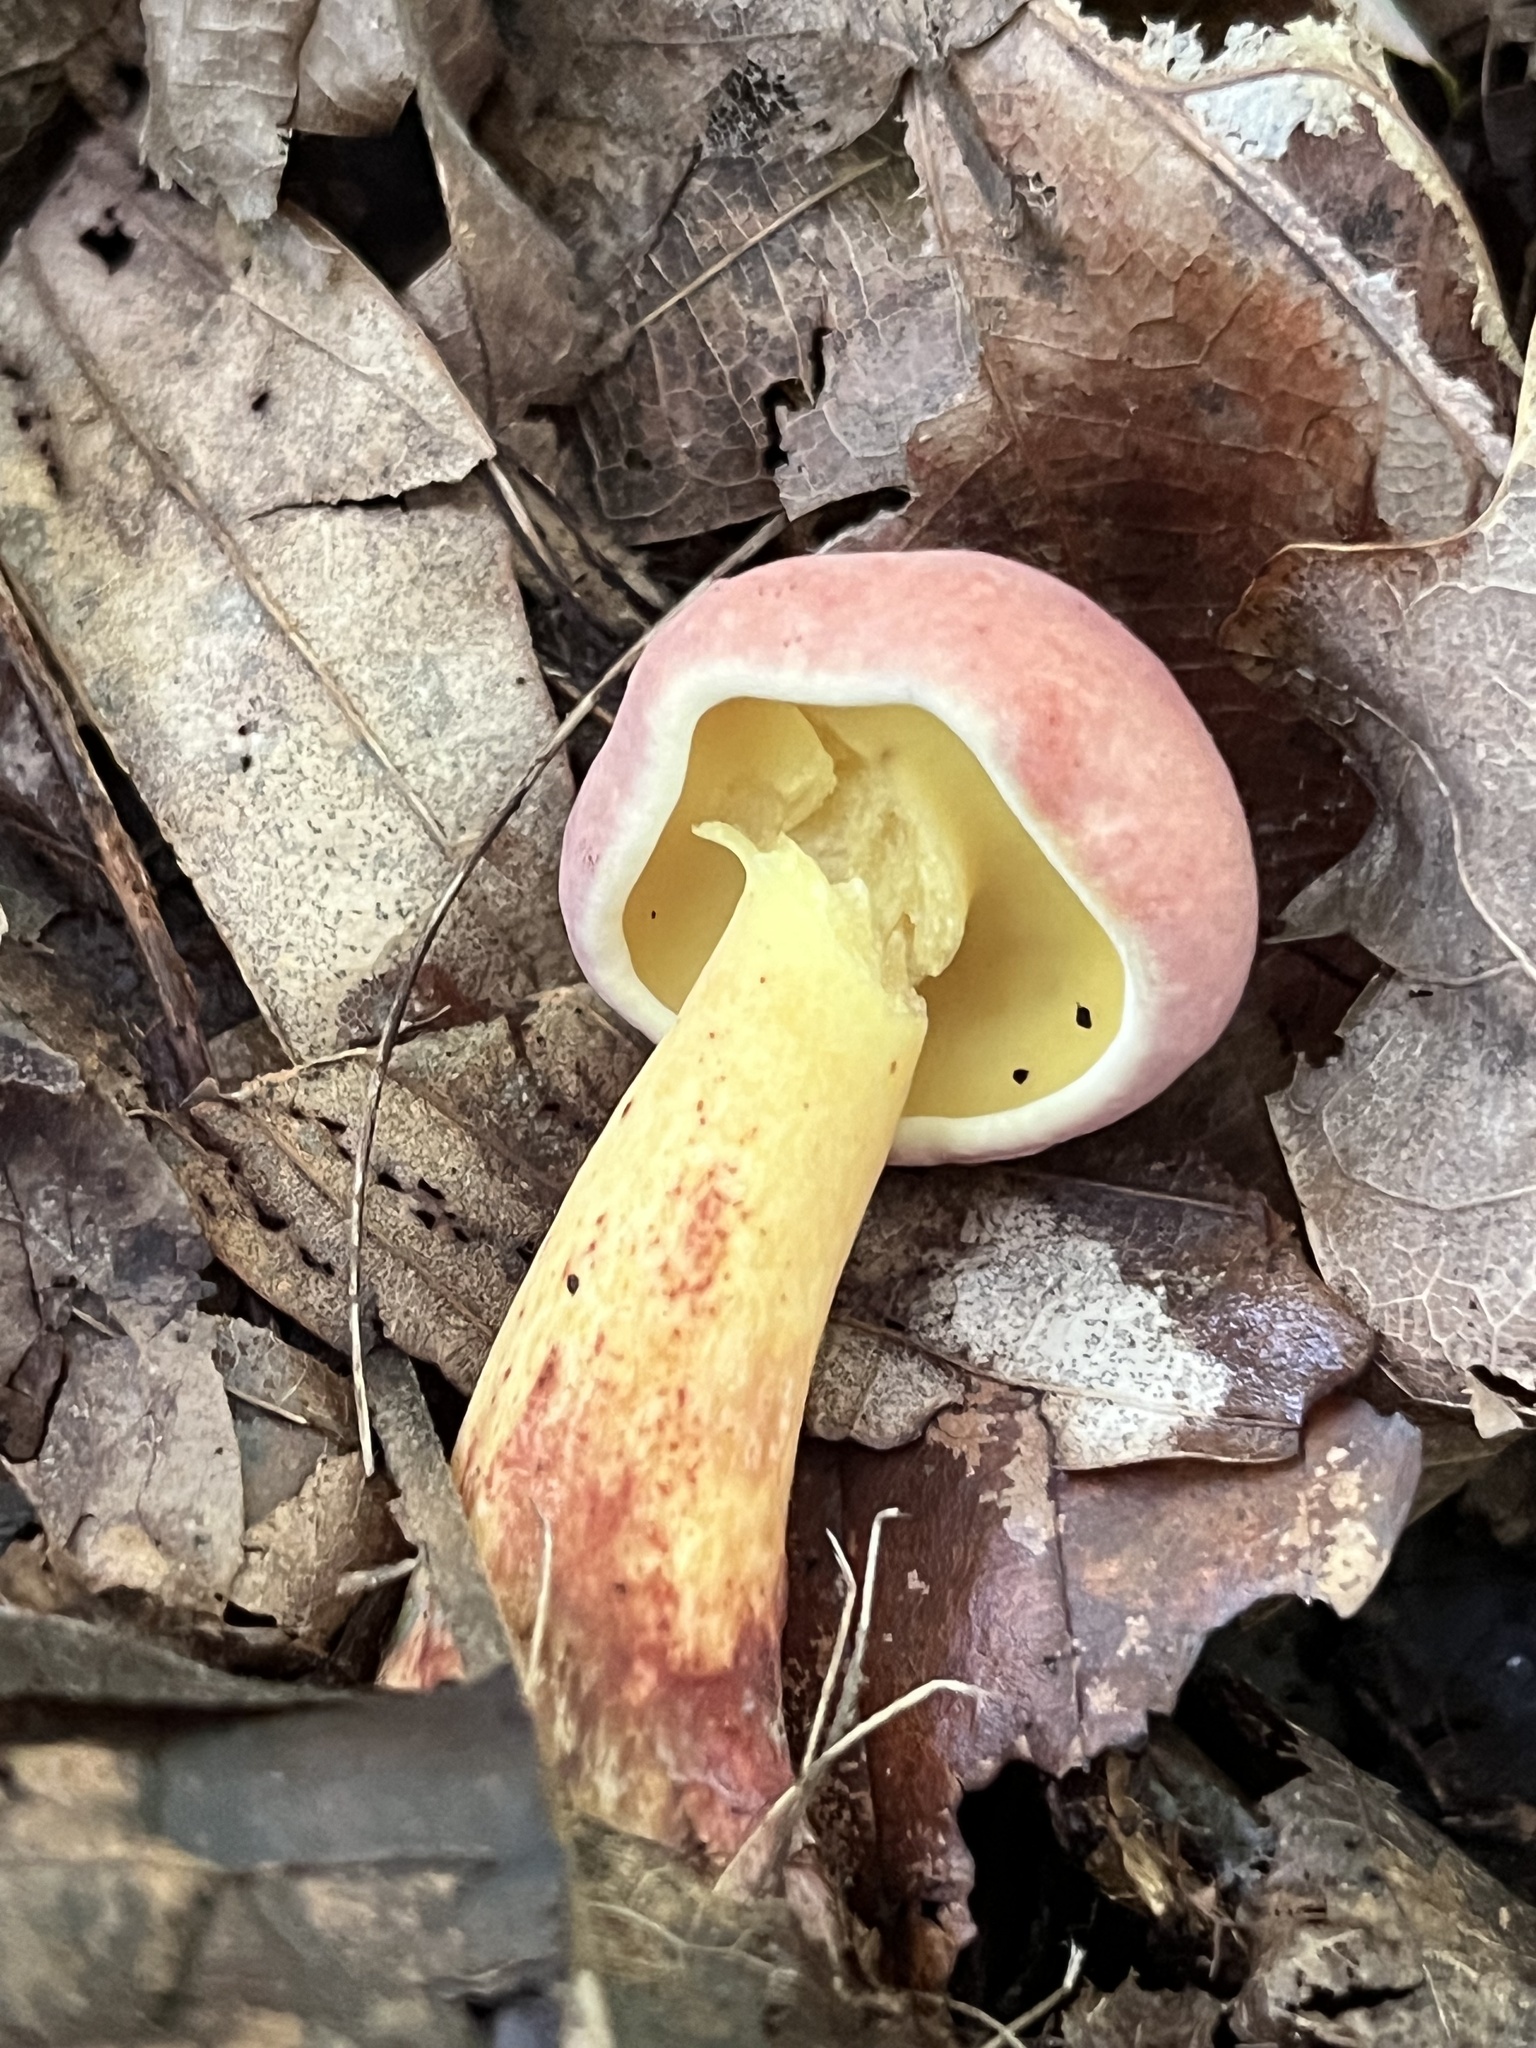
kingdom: Fungi
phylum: Basidiomycota
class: Agaricomycetes
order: Boletales
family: Boletaceae
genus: Baorangia
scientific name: Baorangia bicolor
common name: Two-colored bolete
